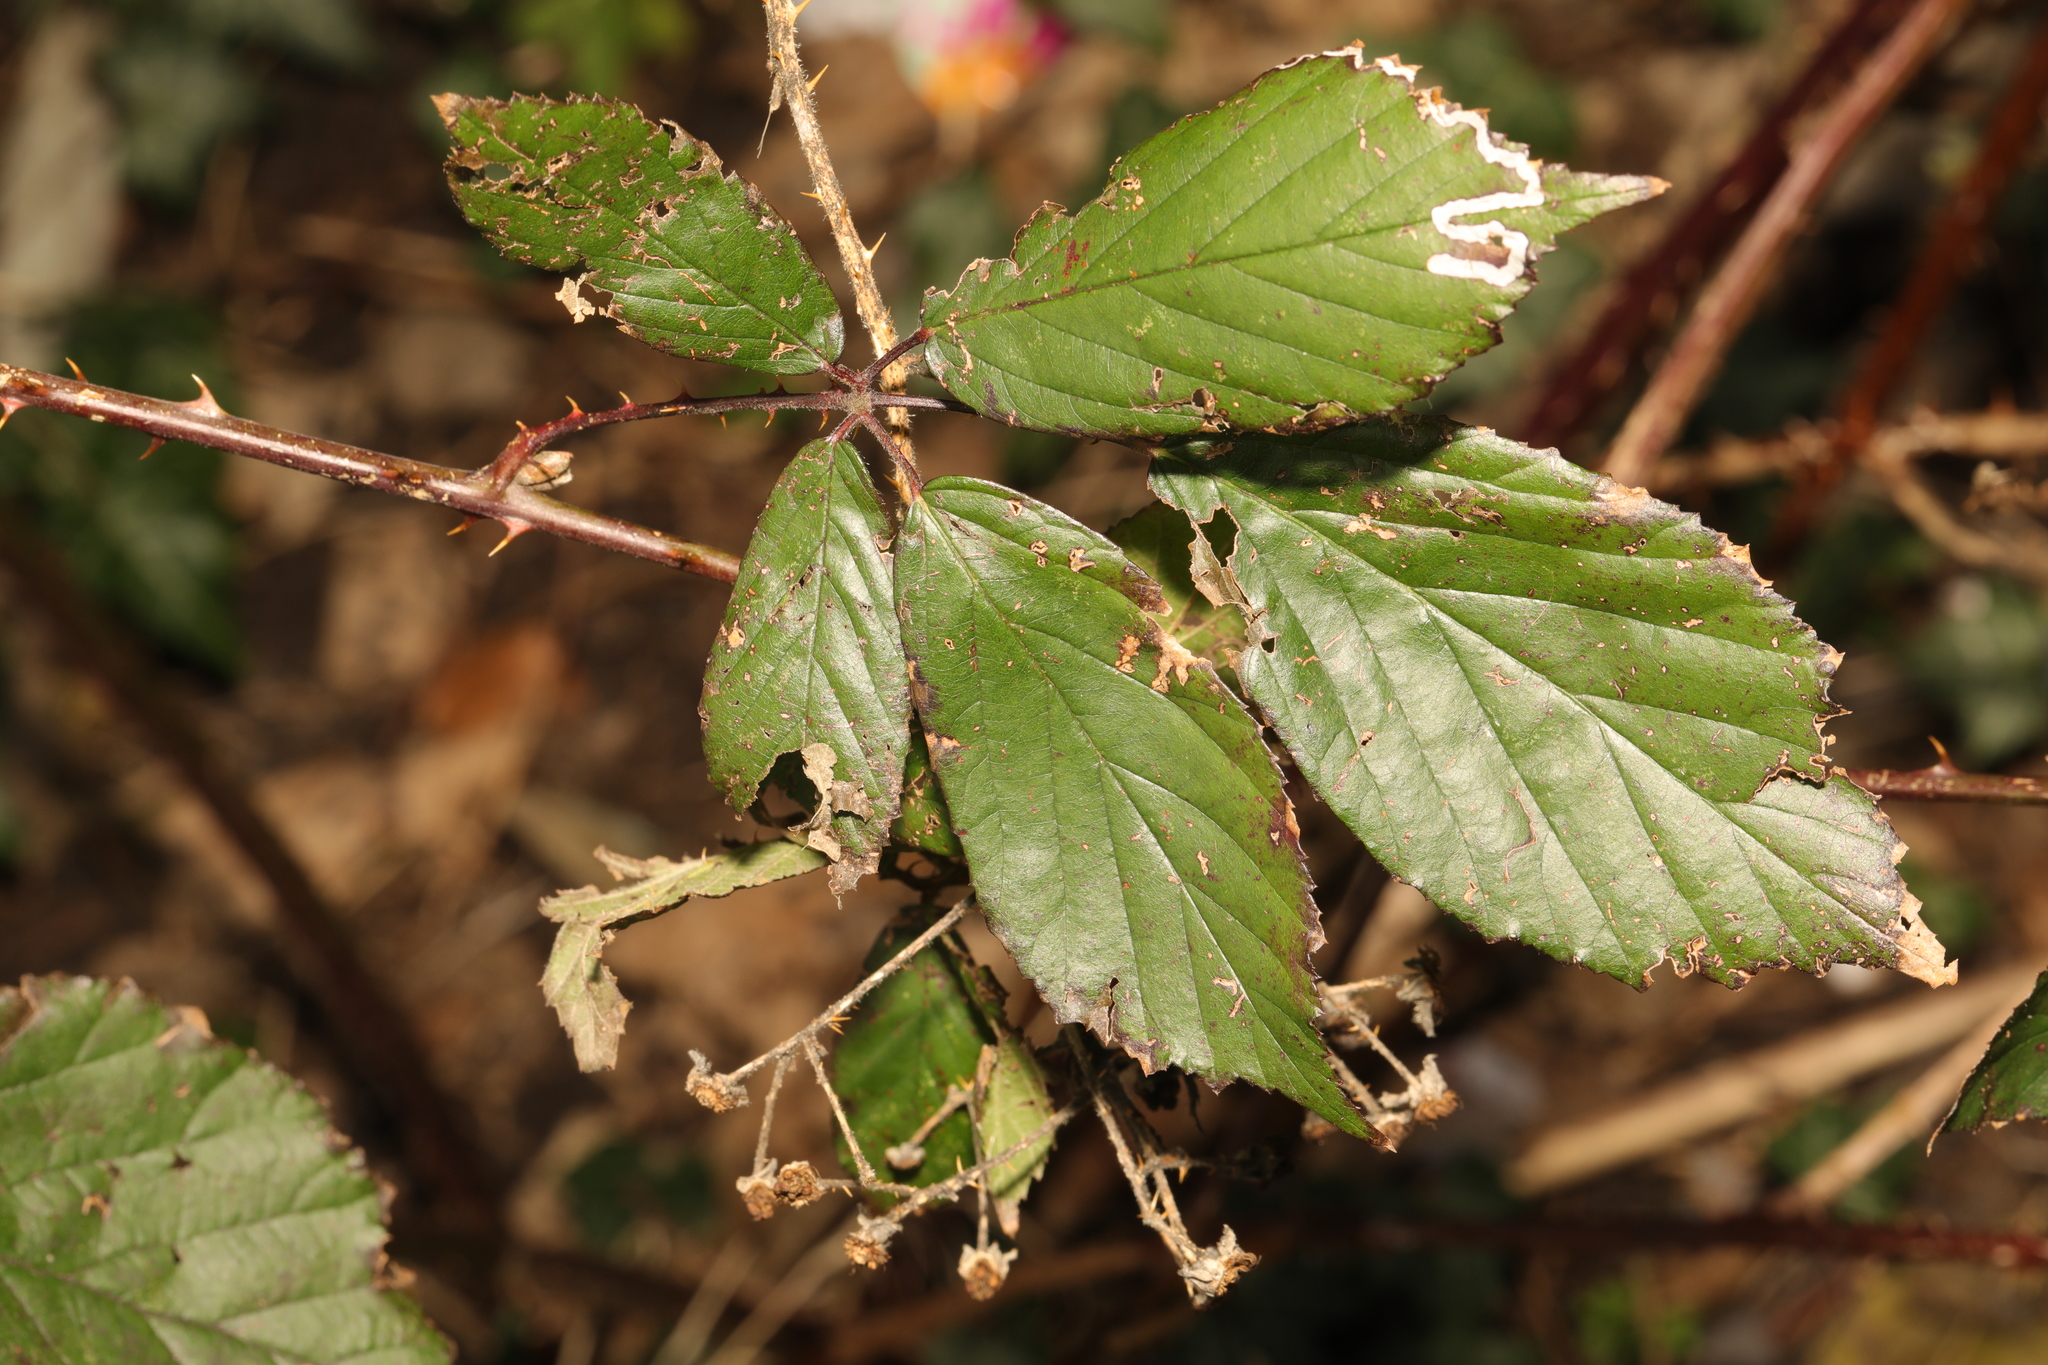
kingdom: Plantae
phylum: Tracheophyta
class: Magnoliopsida
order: Rosales
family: Rosaceae
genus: Rubus
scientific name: Rubus lindleyanus
